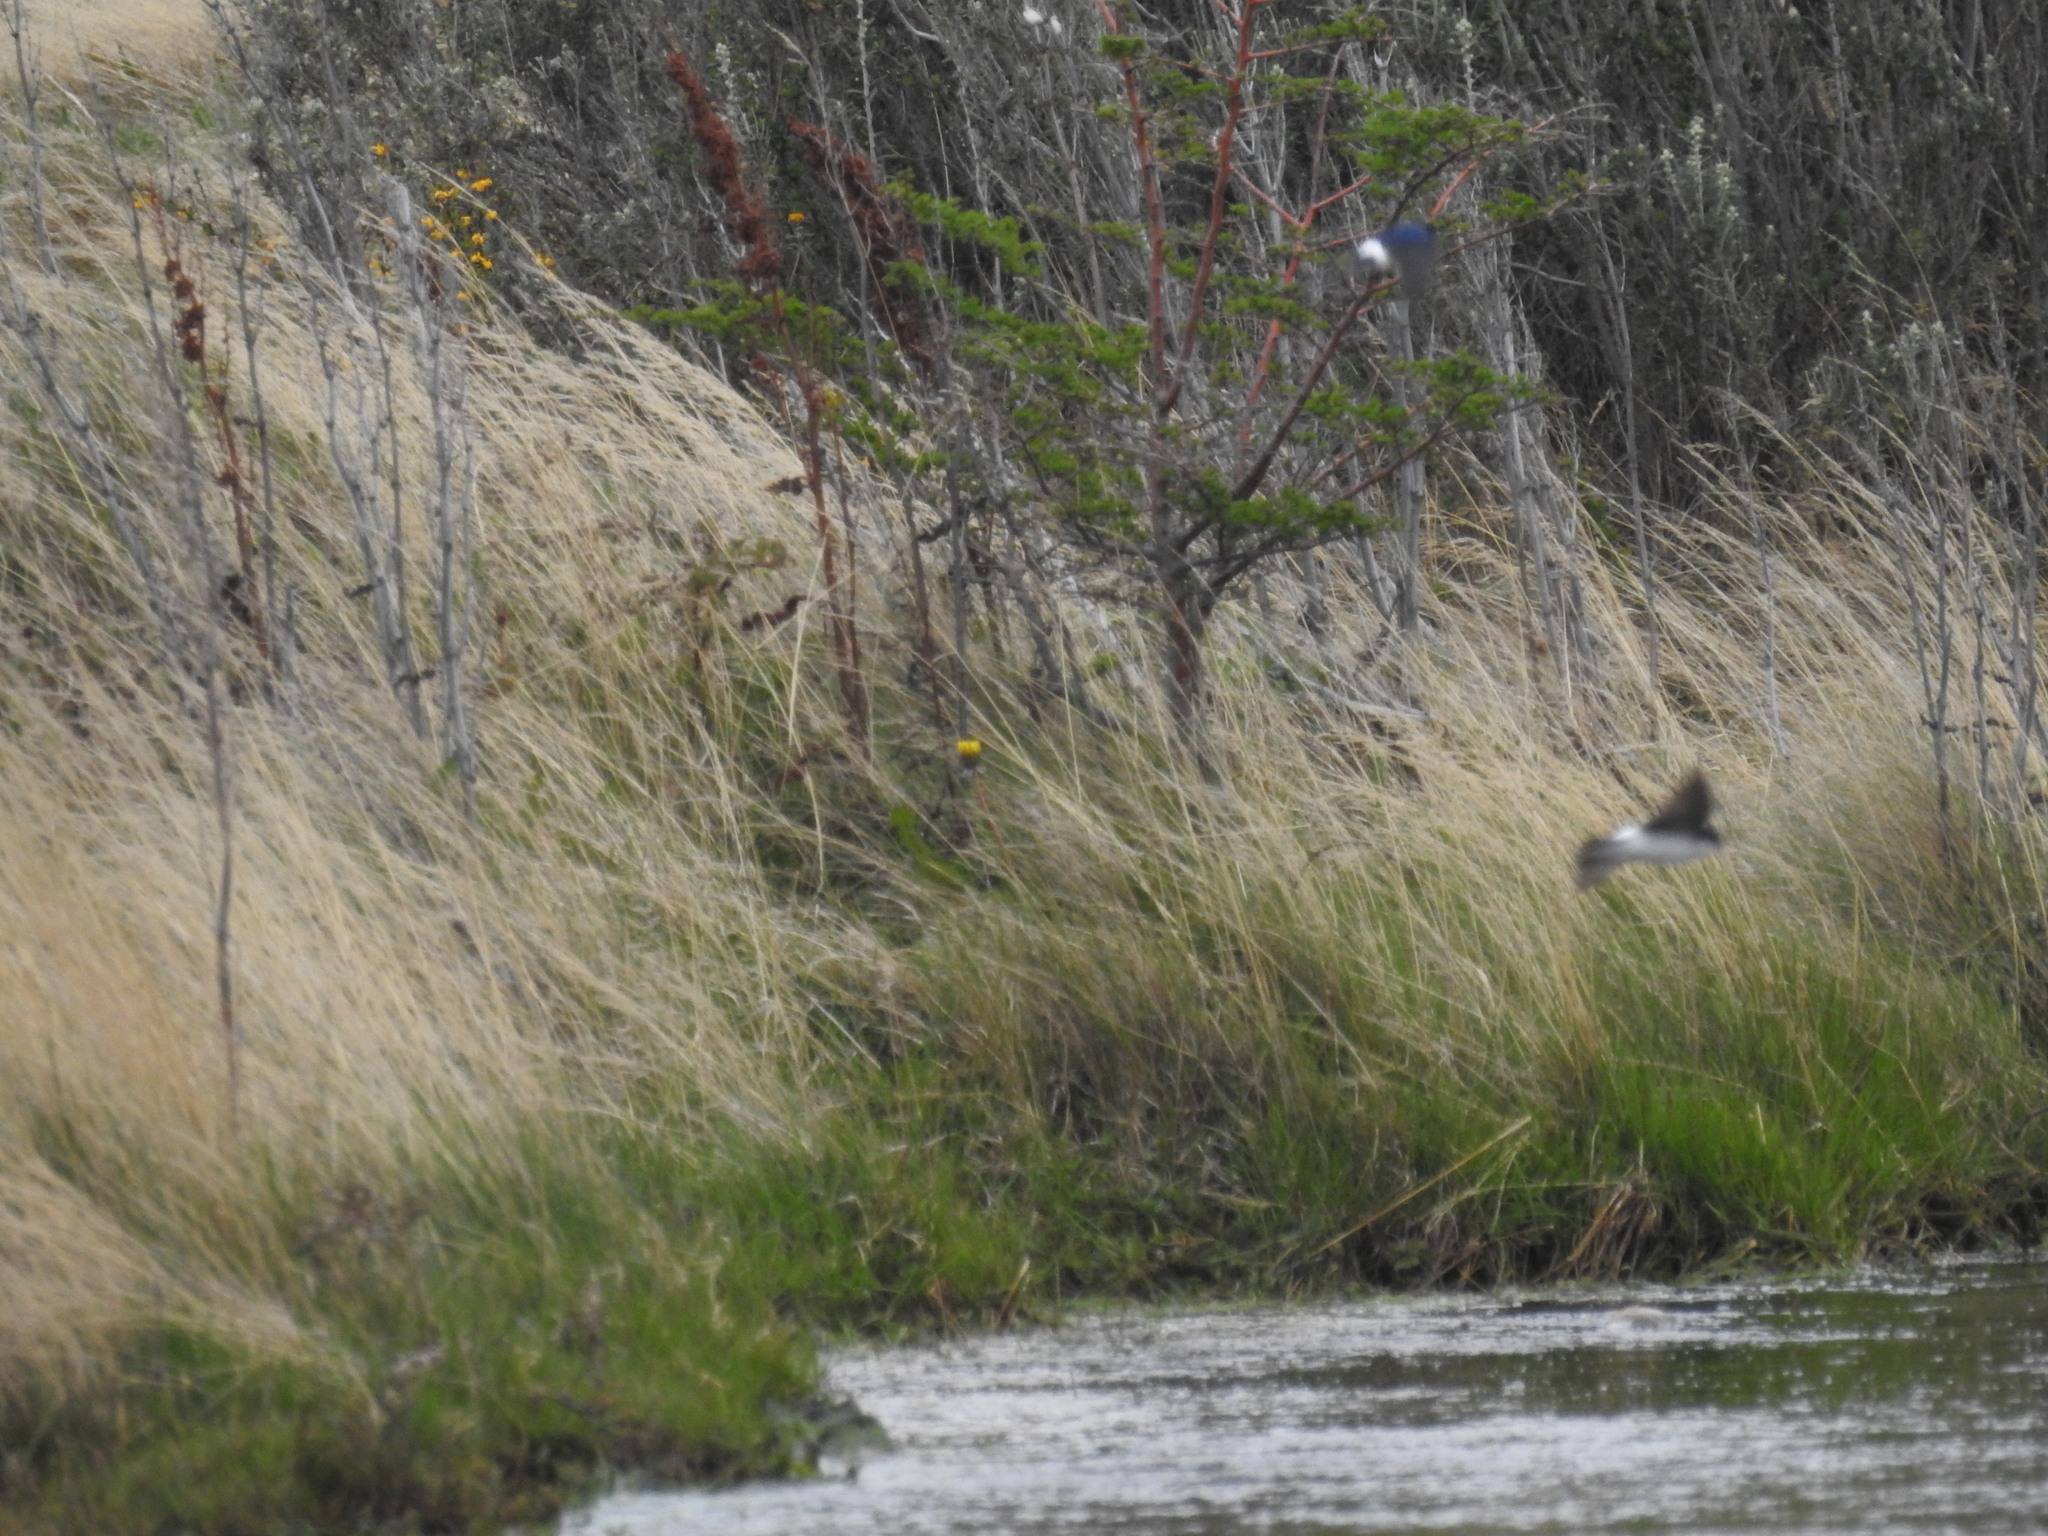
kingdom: Animalia
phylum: Chordata
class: Aves
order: Passeriformes
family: Hirundinidae
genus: Tachycineta
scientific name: Tachycineta leucopyga
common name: Chilean swallow
